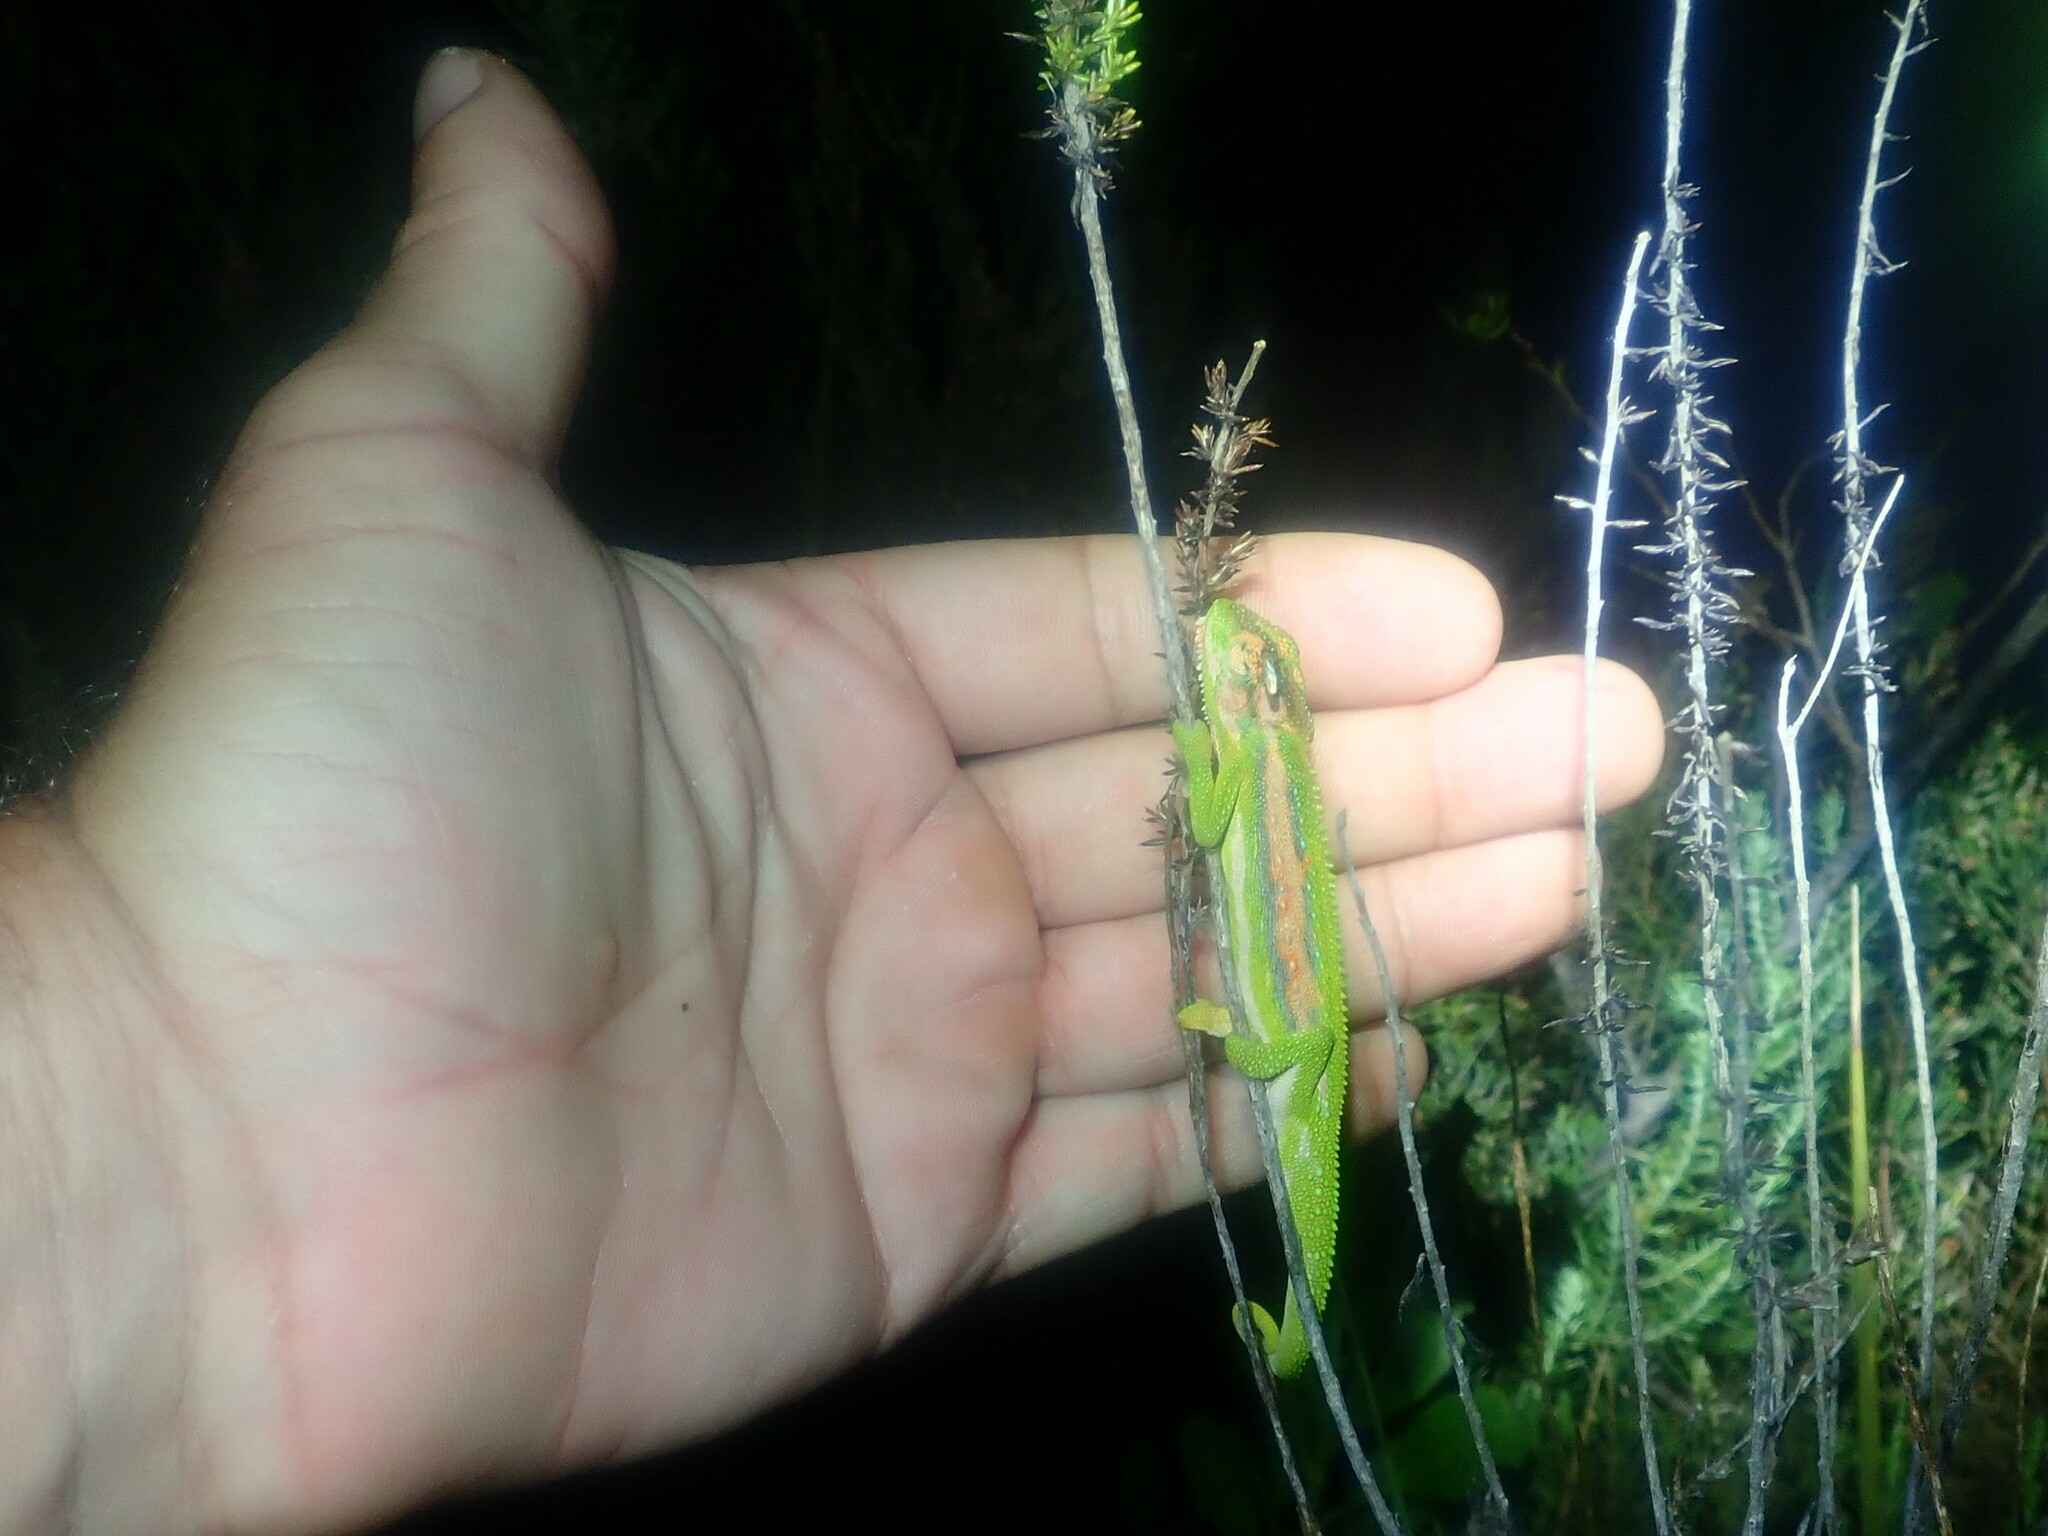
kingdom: Animalia
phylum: Chordata
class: Squamata
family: Chamaeleonidae
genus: Bradypodion
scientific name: Bradypodion pumilum
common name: Cape dwarf chameleon
